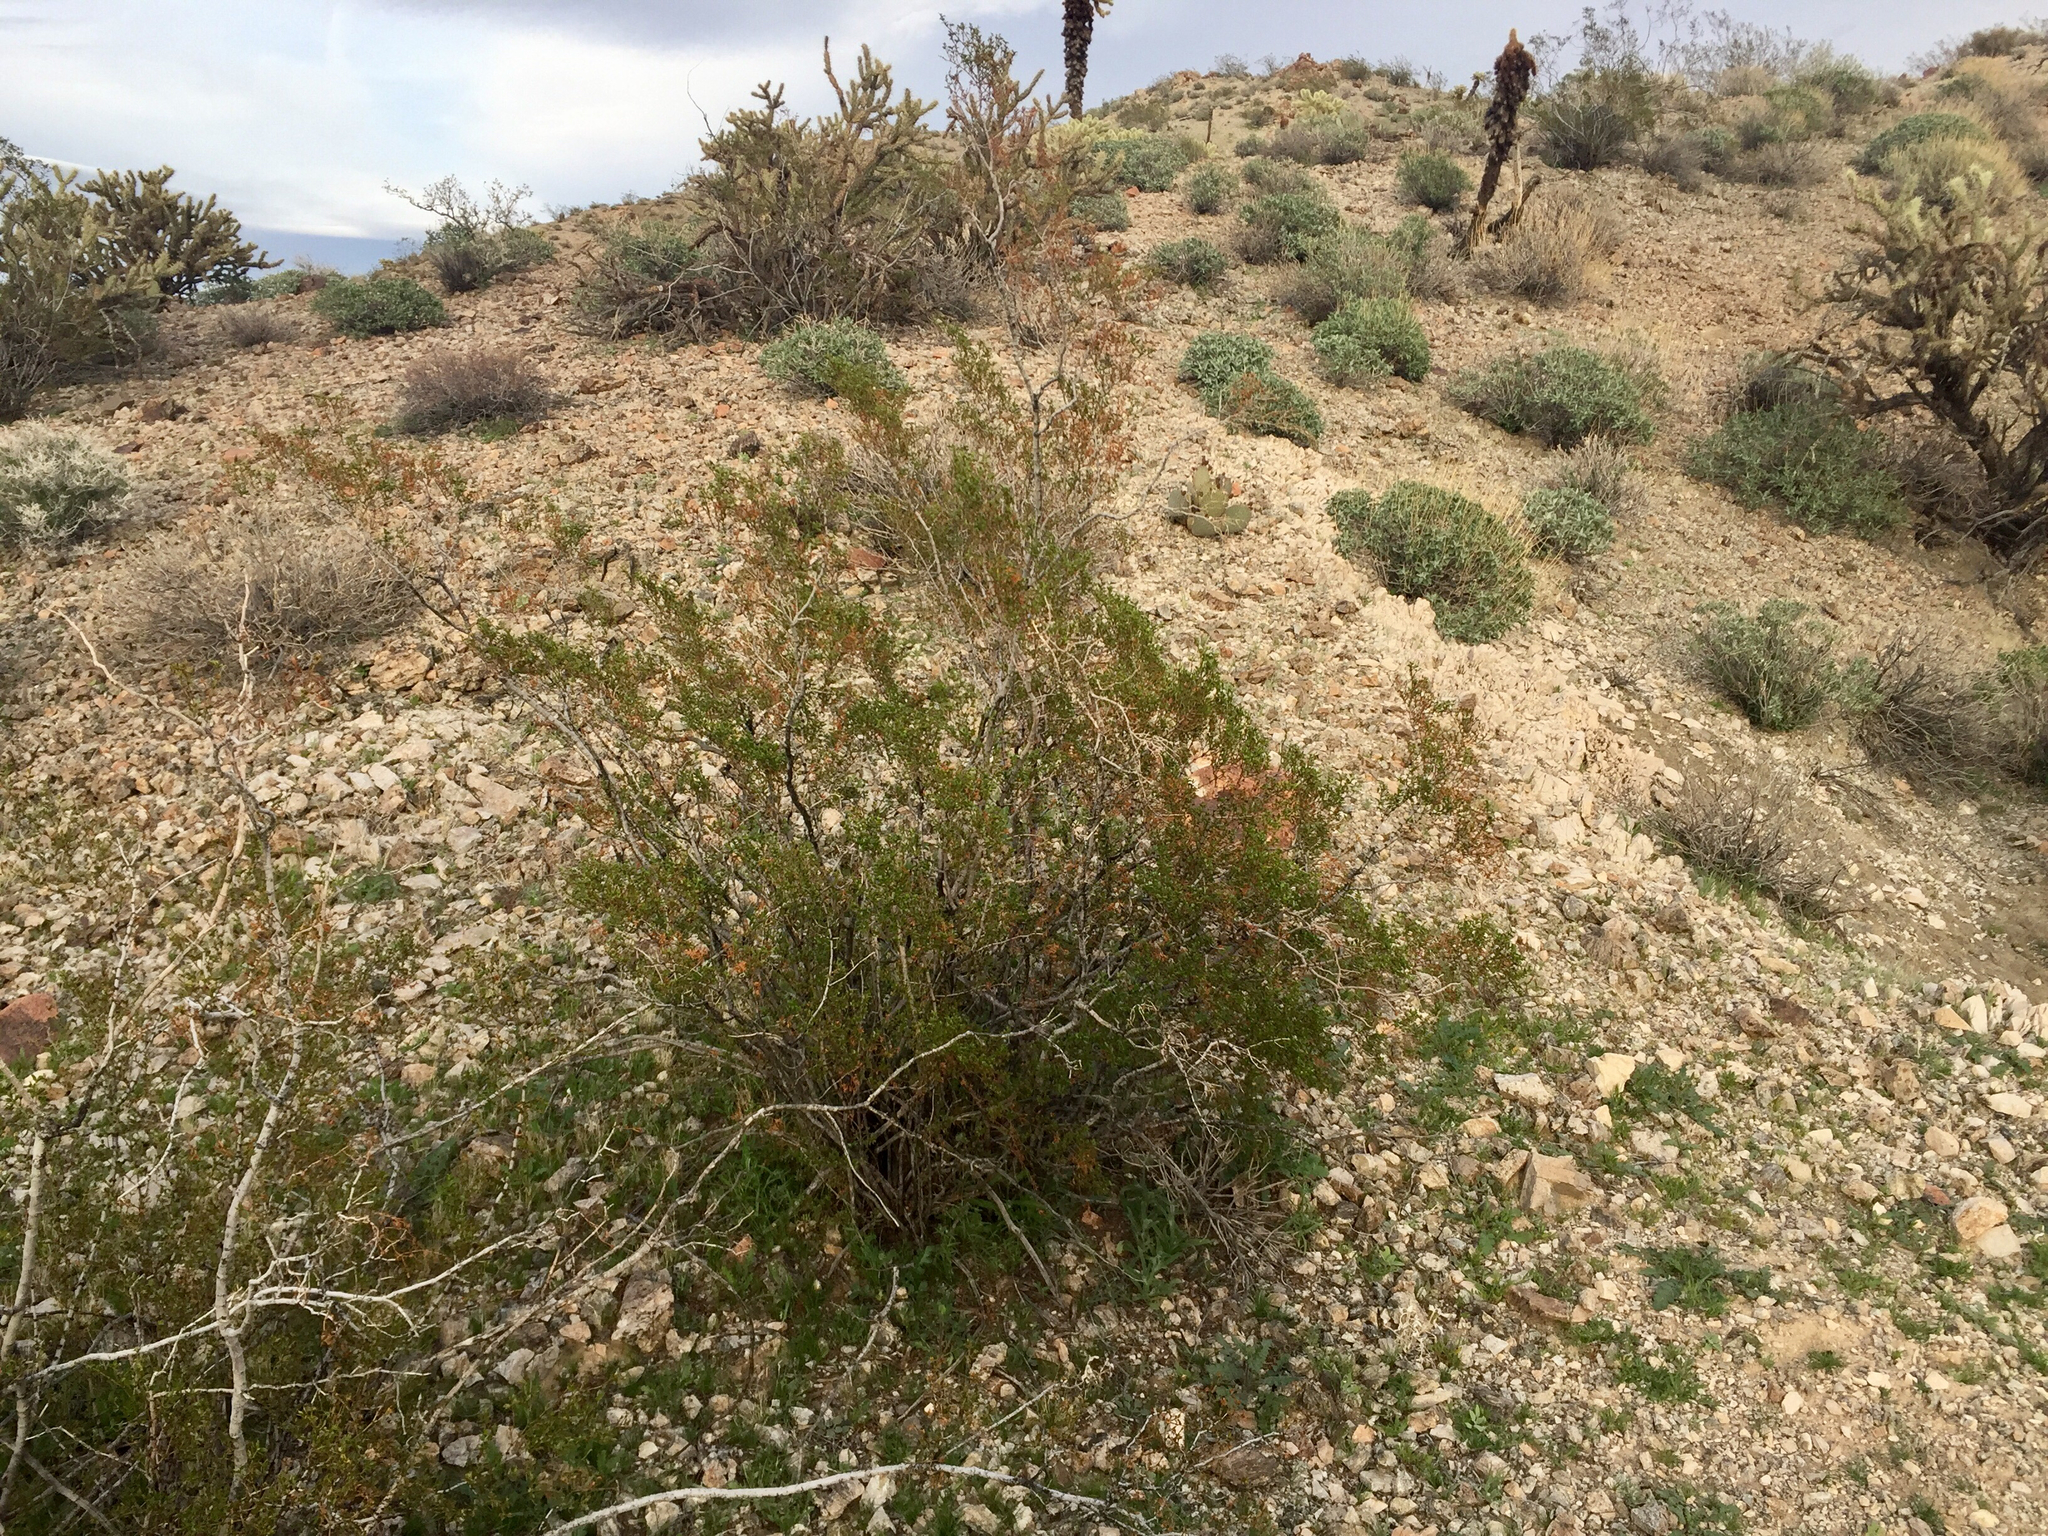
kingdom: Plantae
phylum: Tracheophyta
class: Magnoliopsida
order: Zygophyllales
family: Zygophyllaceae
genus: Larrea
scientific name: Larrea tridentata
